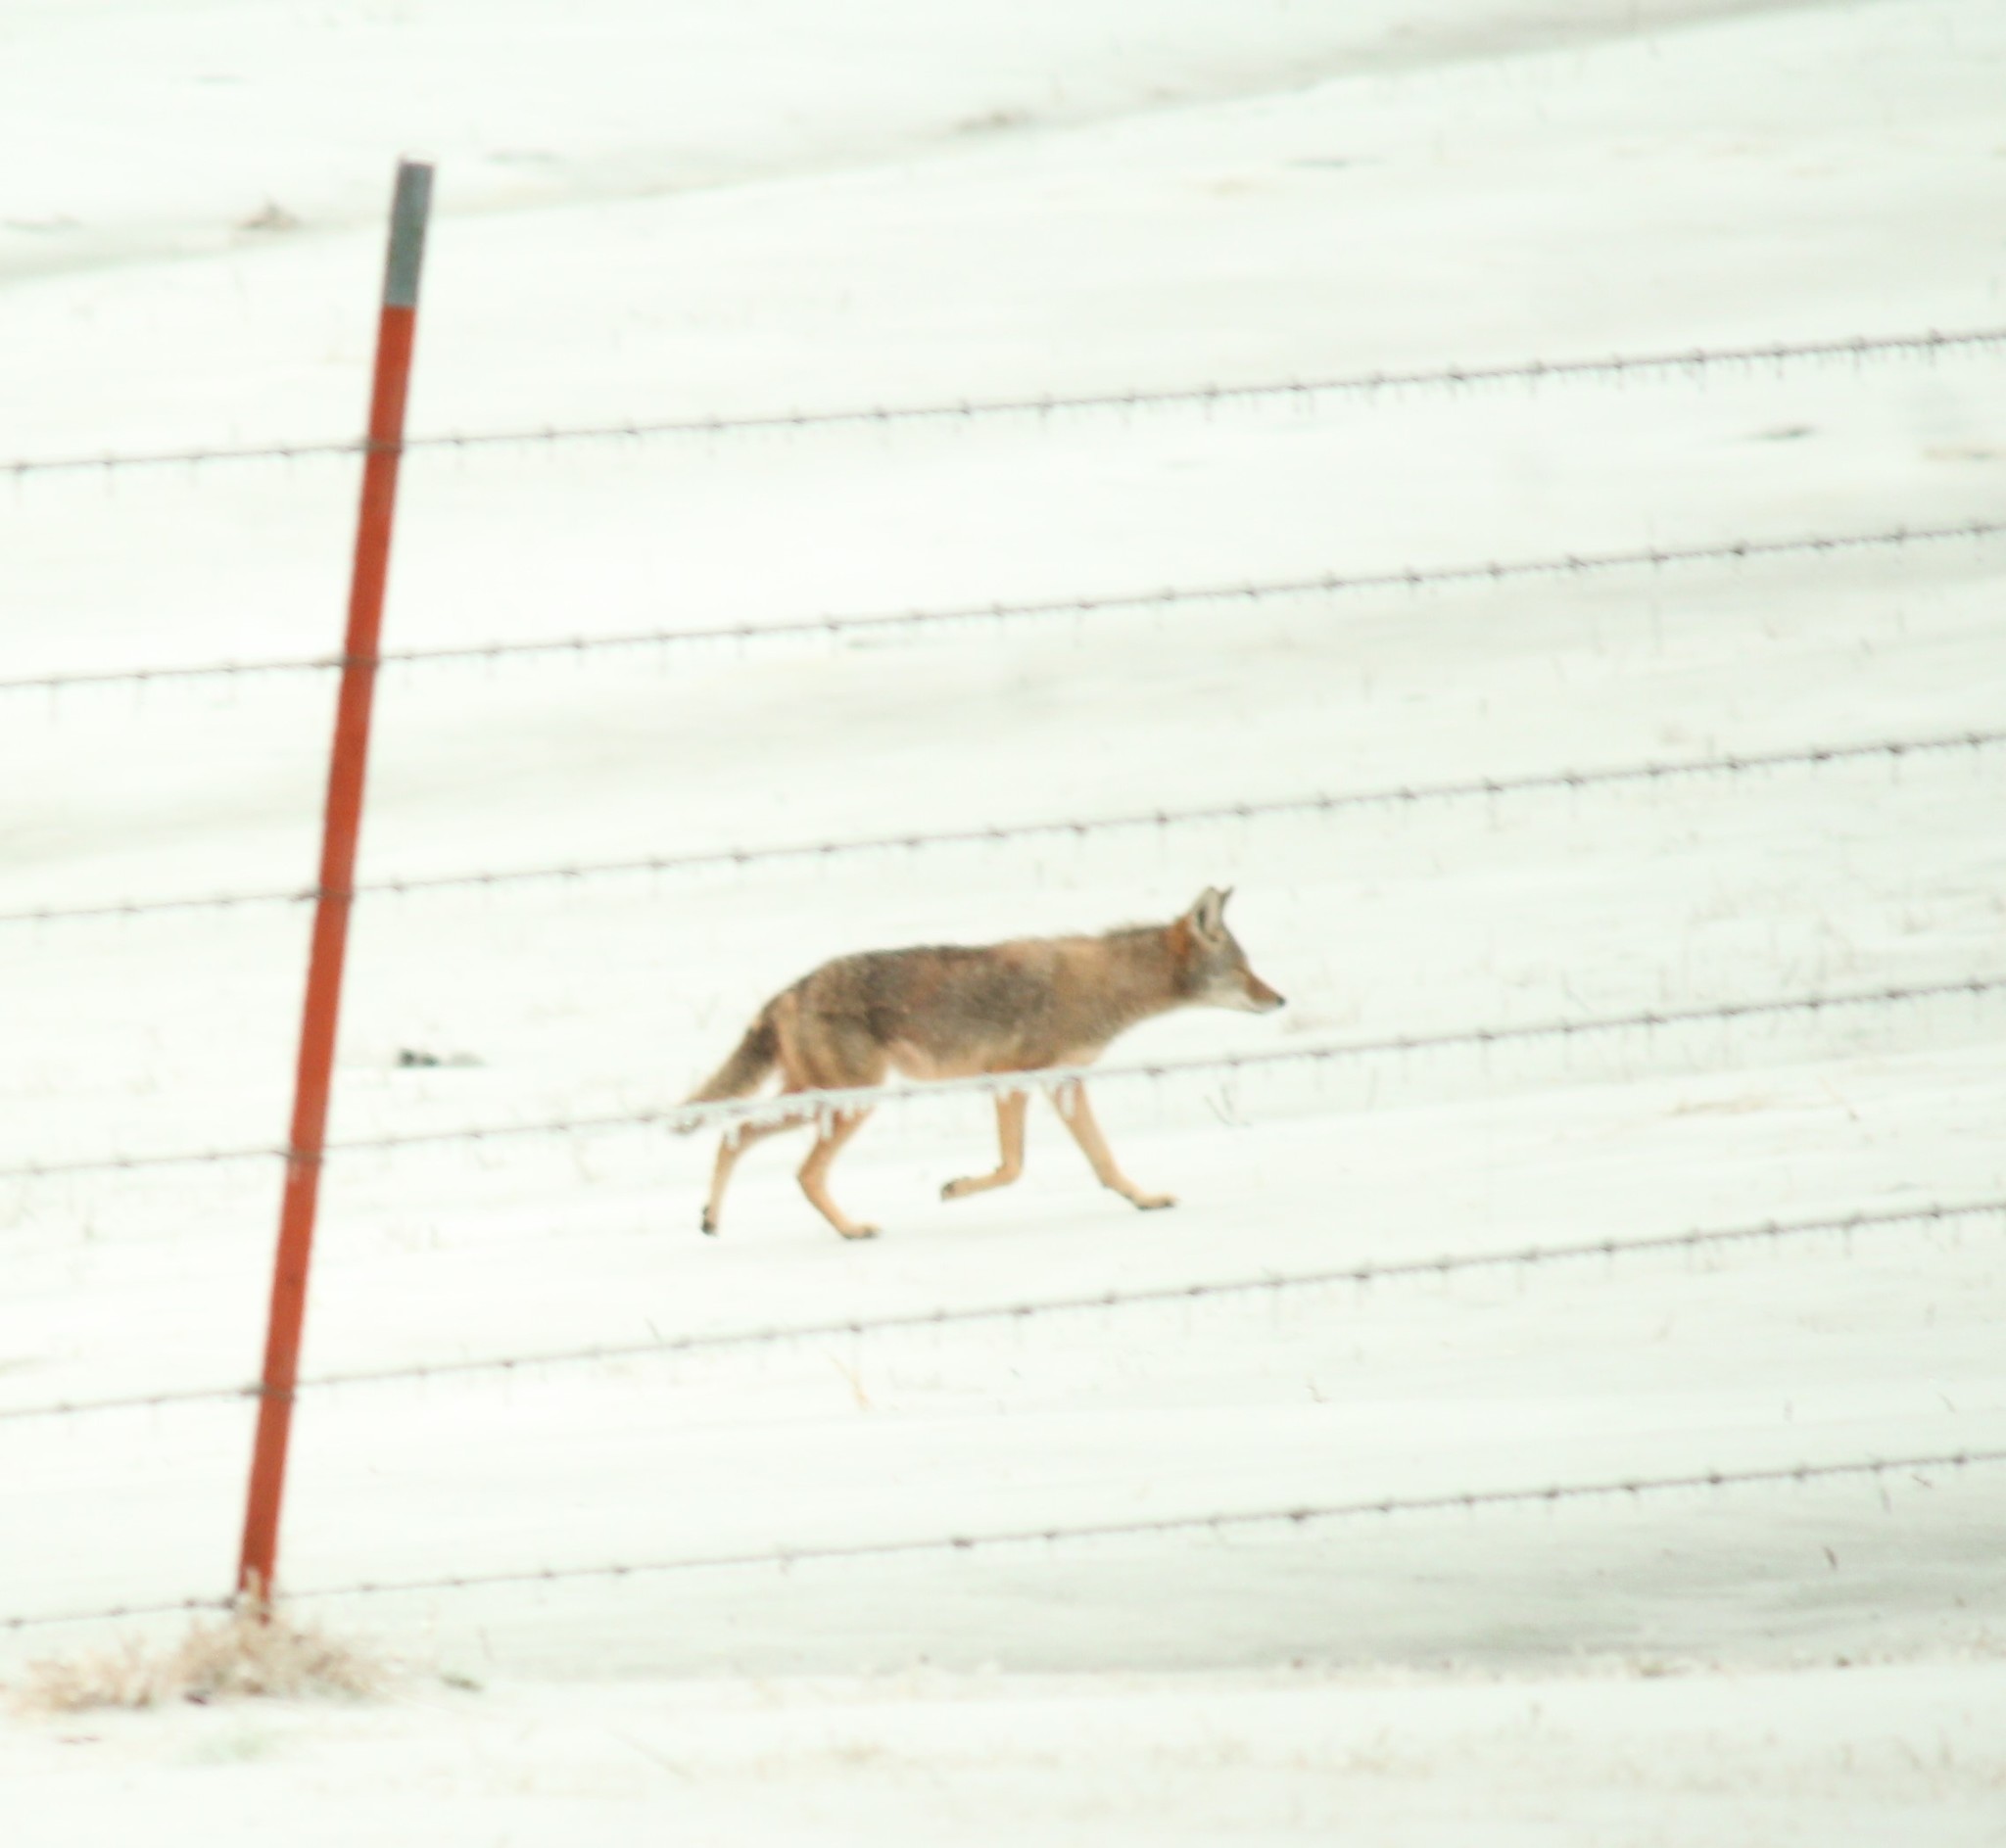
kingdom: Animalia
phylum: Chordata
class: Mammalia
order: Carnivora
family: Canidae
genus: Canis
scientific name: Canis latrans
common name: Coyote
